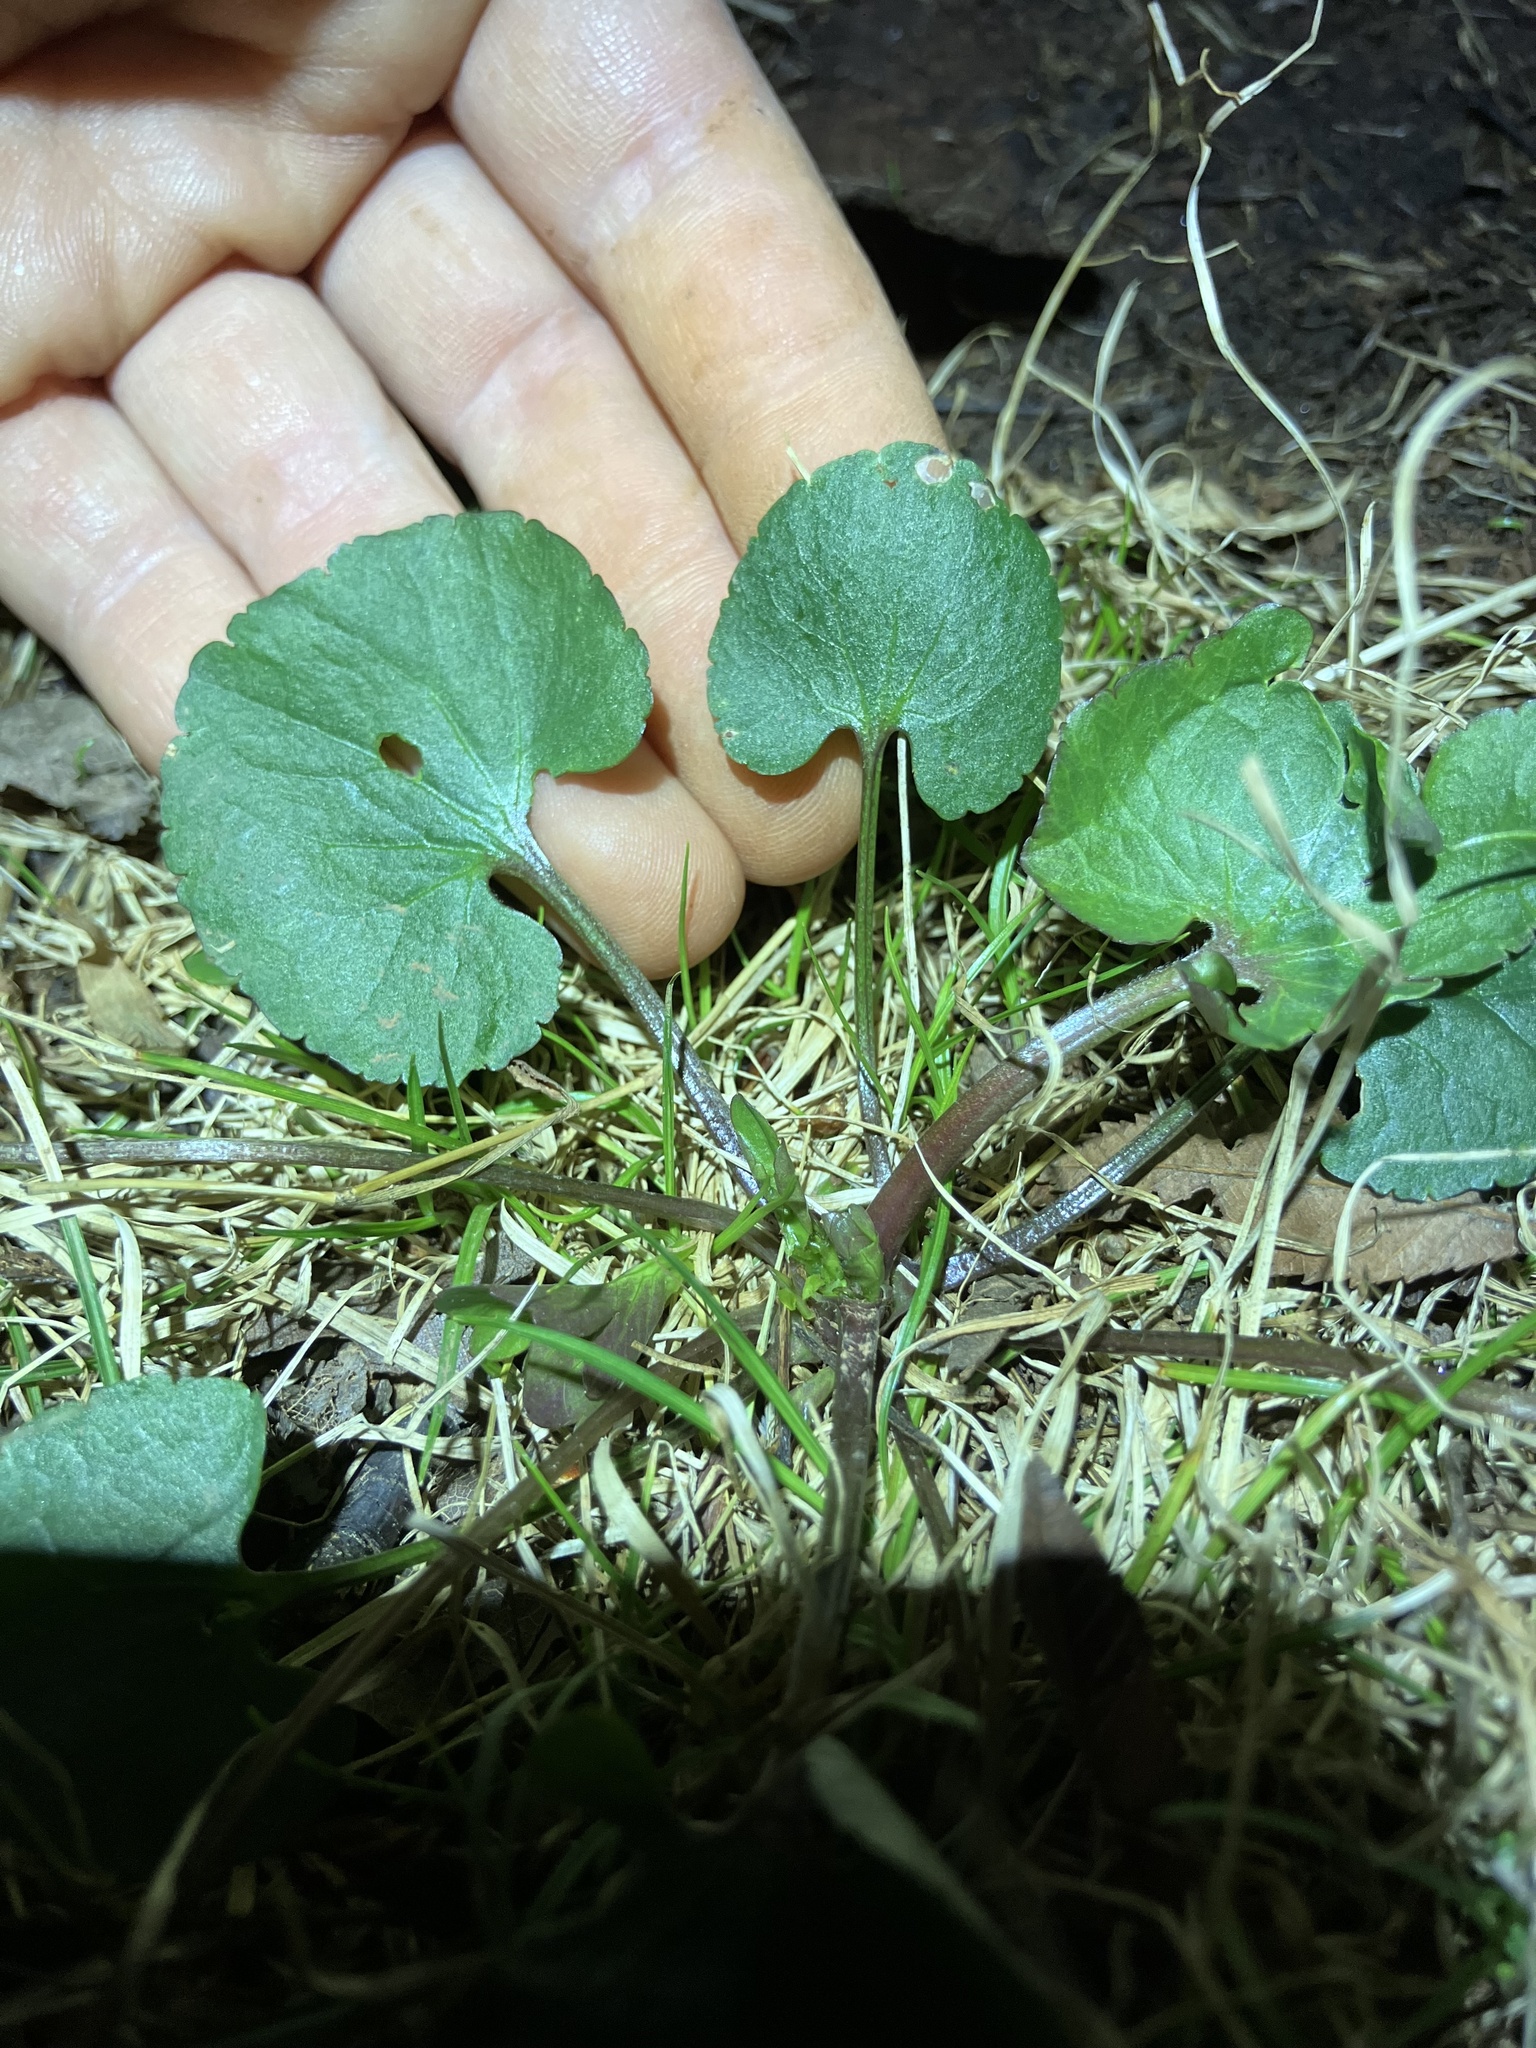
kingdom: Plantae
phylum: Tracheophyta
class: Magnoliopsida
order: Ranunculales
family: Ranunculaceae
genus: Ranunculus
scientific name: Ranunculus abortivus
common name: Early wood buttercup
